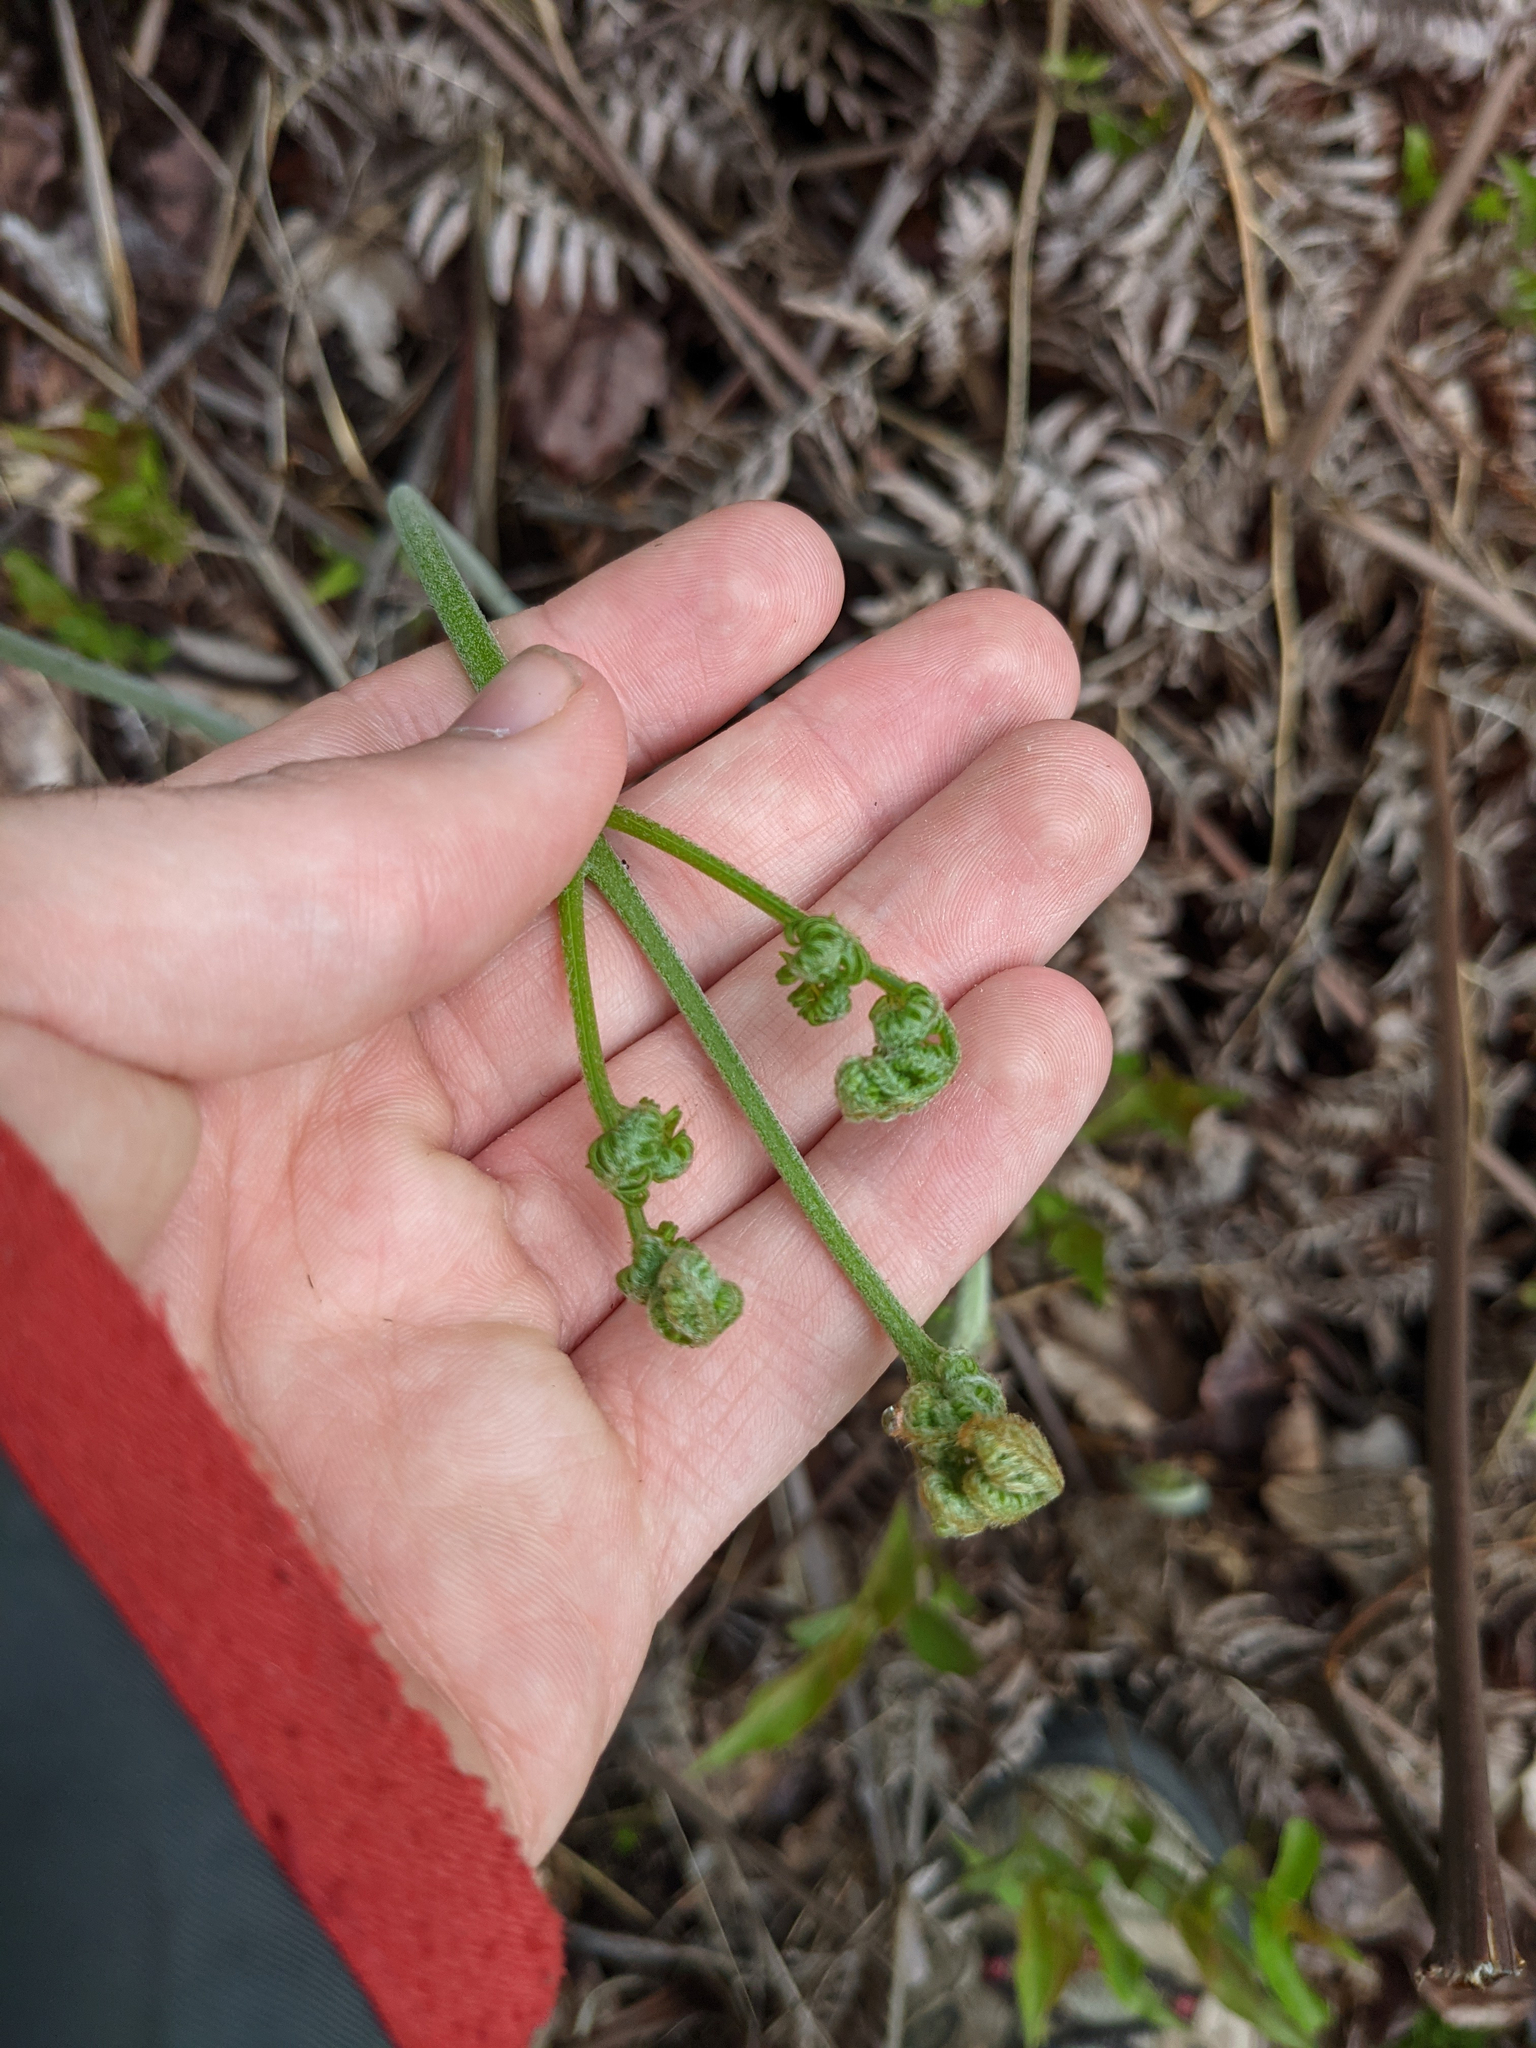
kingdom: Plantae
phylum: Tracheophyta
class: Polypodiopsida
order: Polypodiales
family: Dennstaedtiaceae
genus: Pteridium
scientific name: Pteridium aquilinum
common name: Bracken
